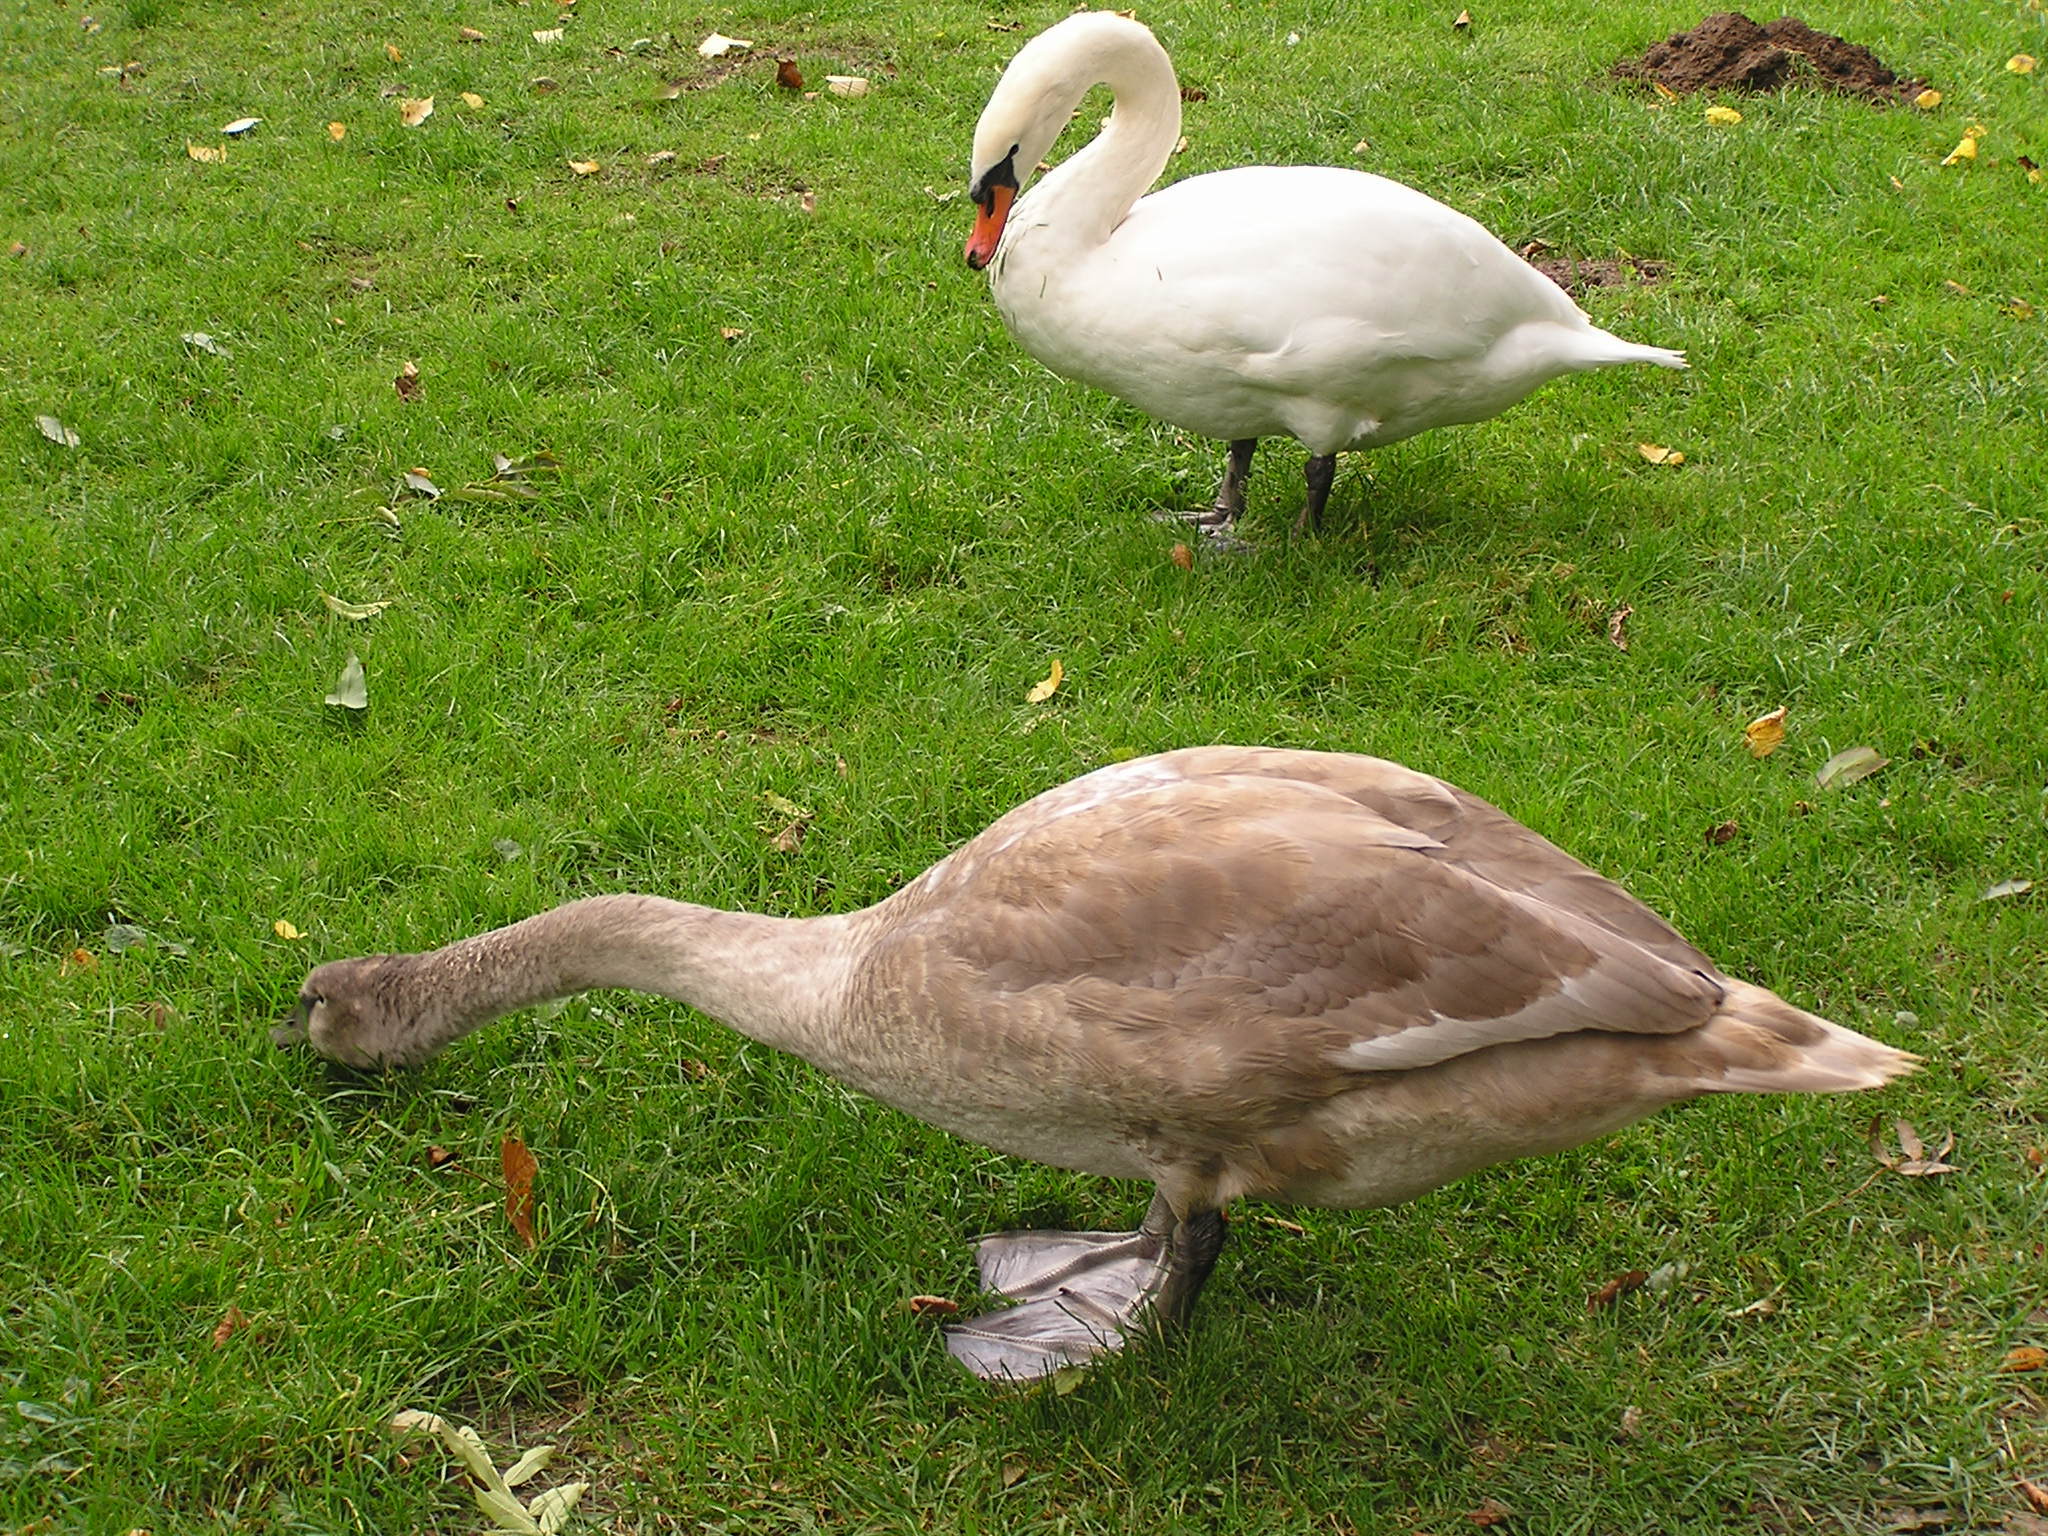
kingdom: Animalia
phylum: Chordata
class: Aves
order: Anseriformes
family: Anatidae
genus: Cygnus
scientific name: Cygnus olor
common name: Mute swan
